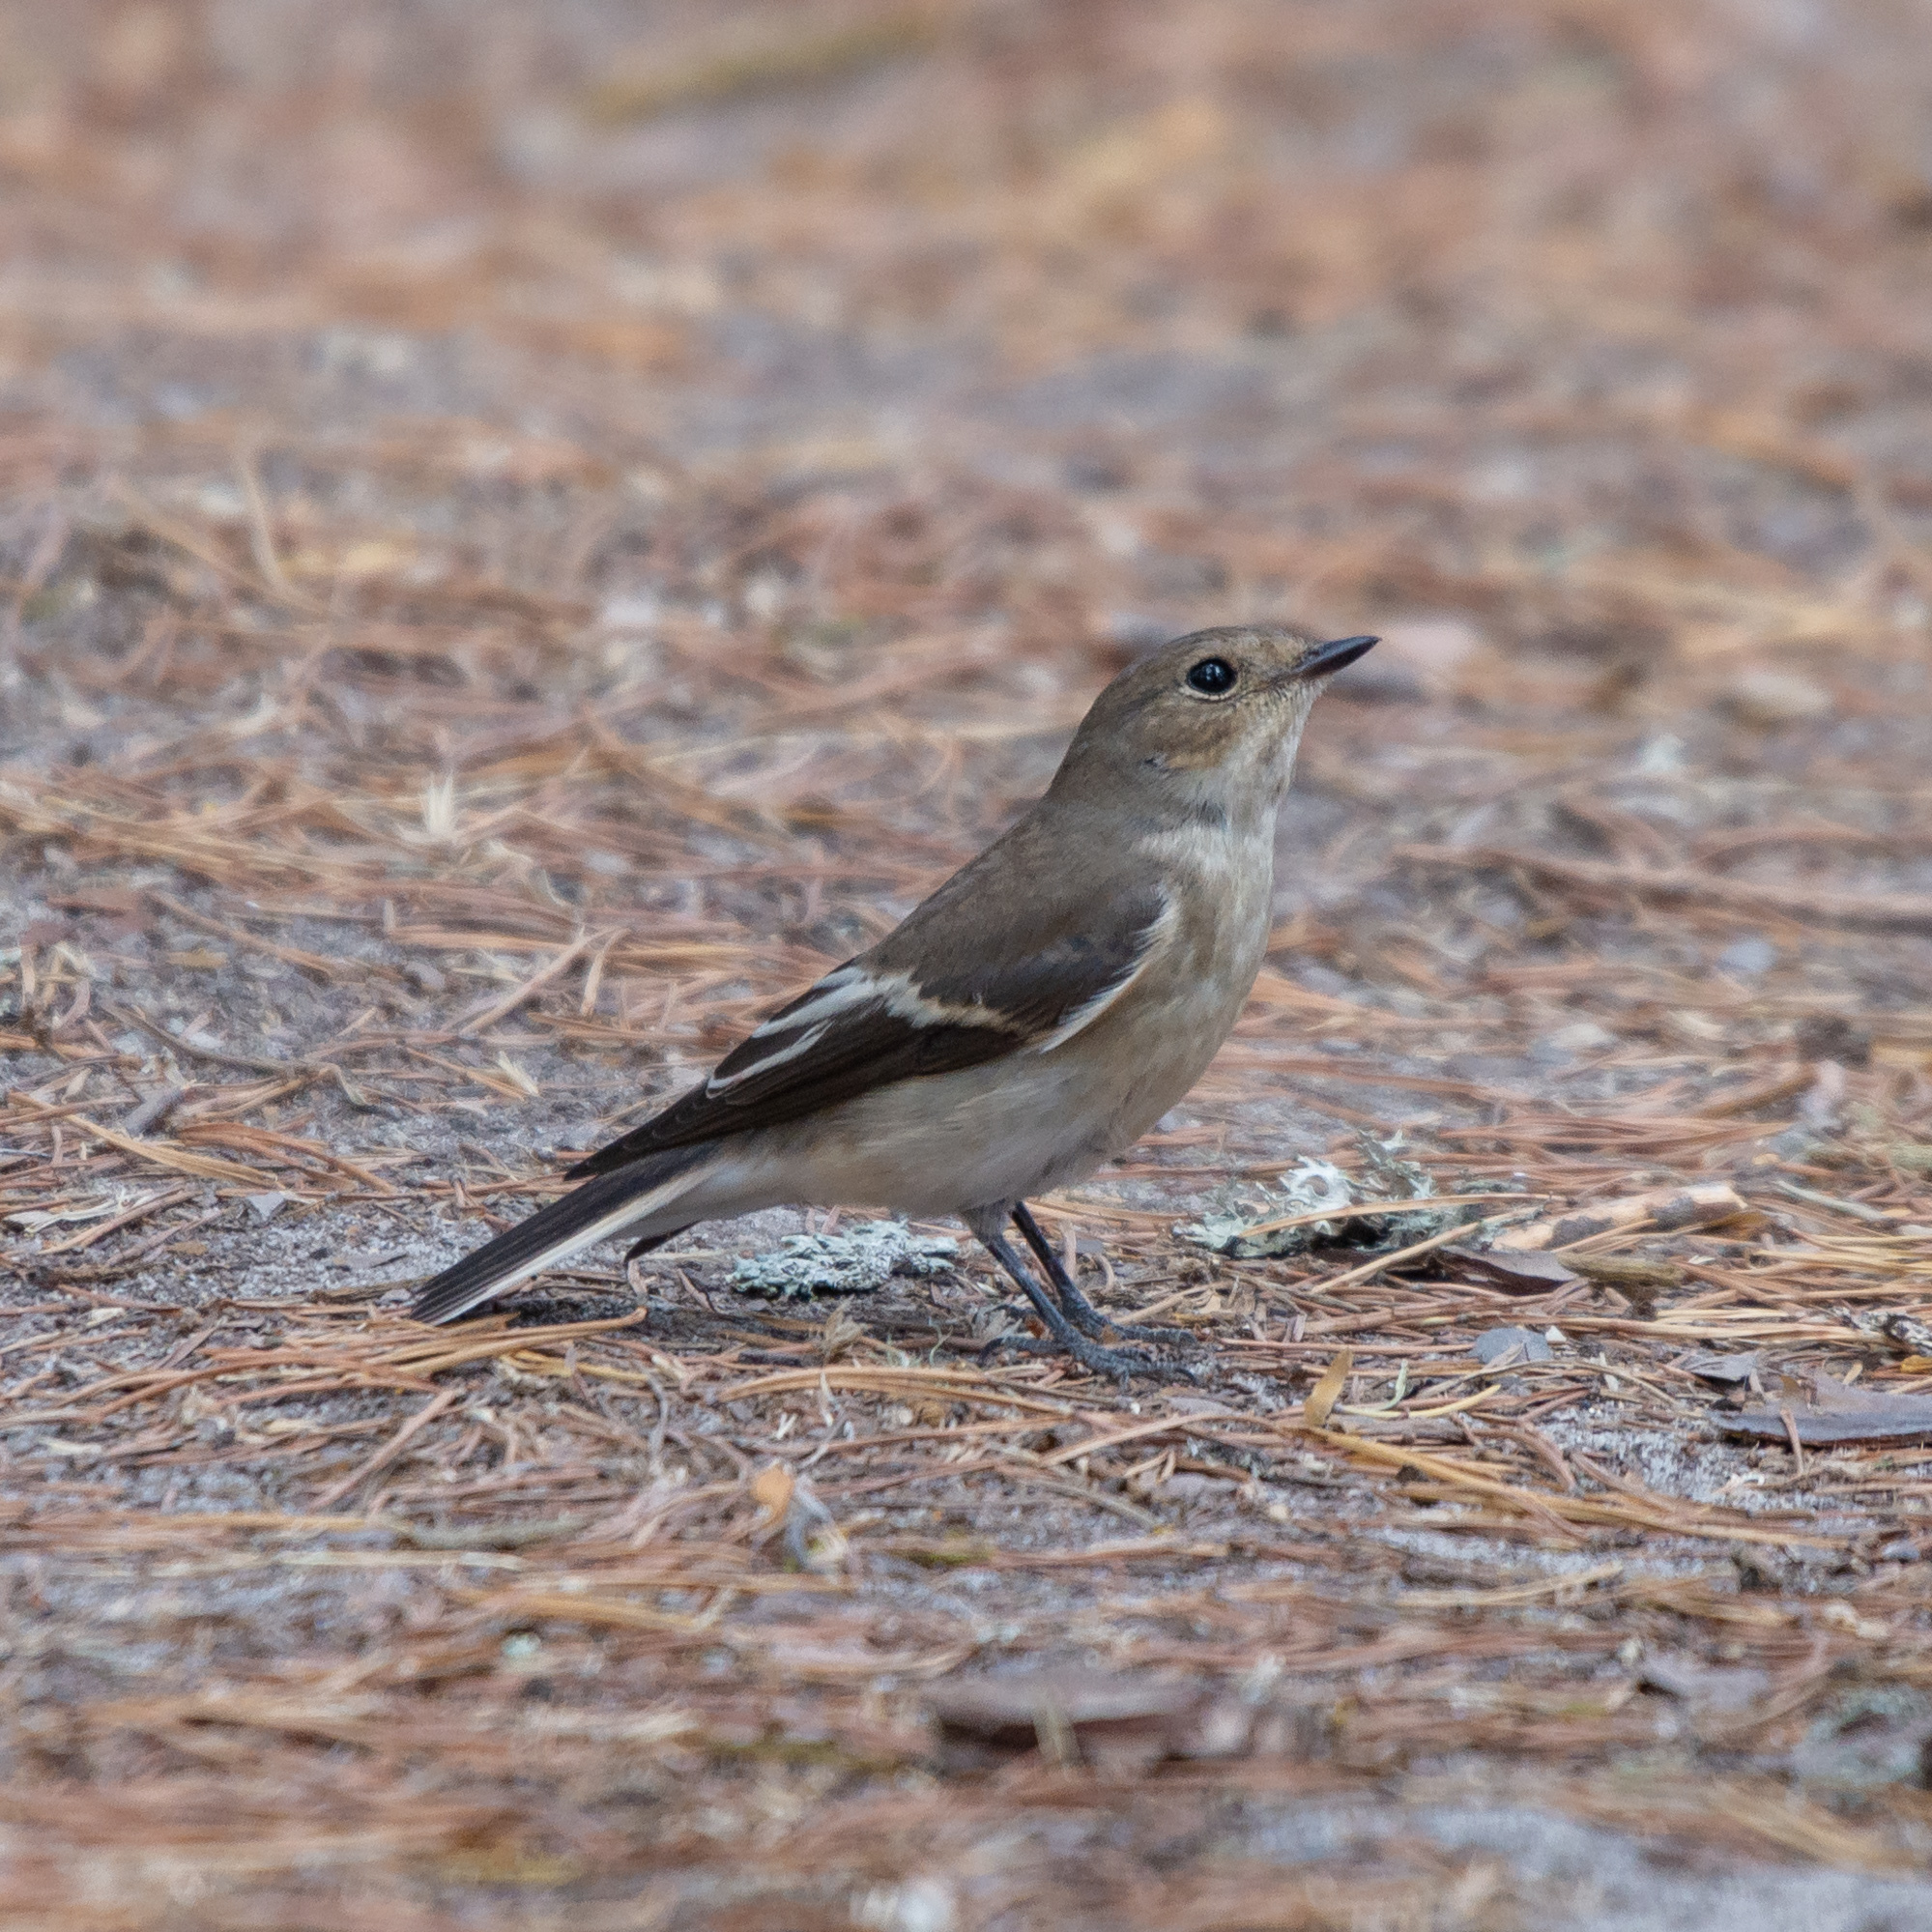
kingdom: Animalia
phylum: Chordata
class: Aves
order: Passeriformes
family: Muscicapidae
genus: Ficedula
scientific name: Ficedula hypoleuca
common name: European pied flycatcher
